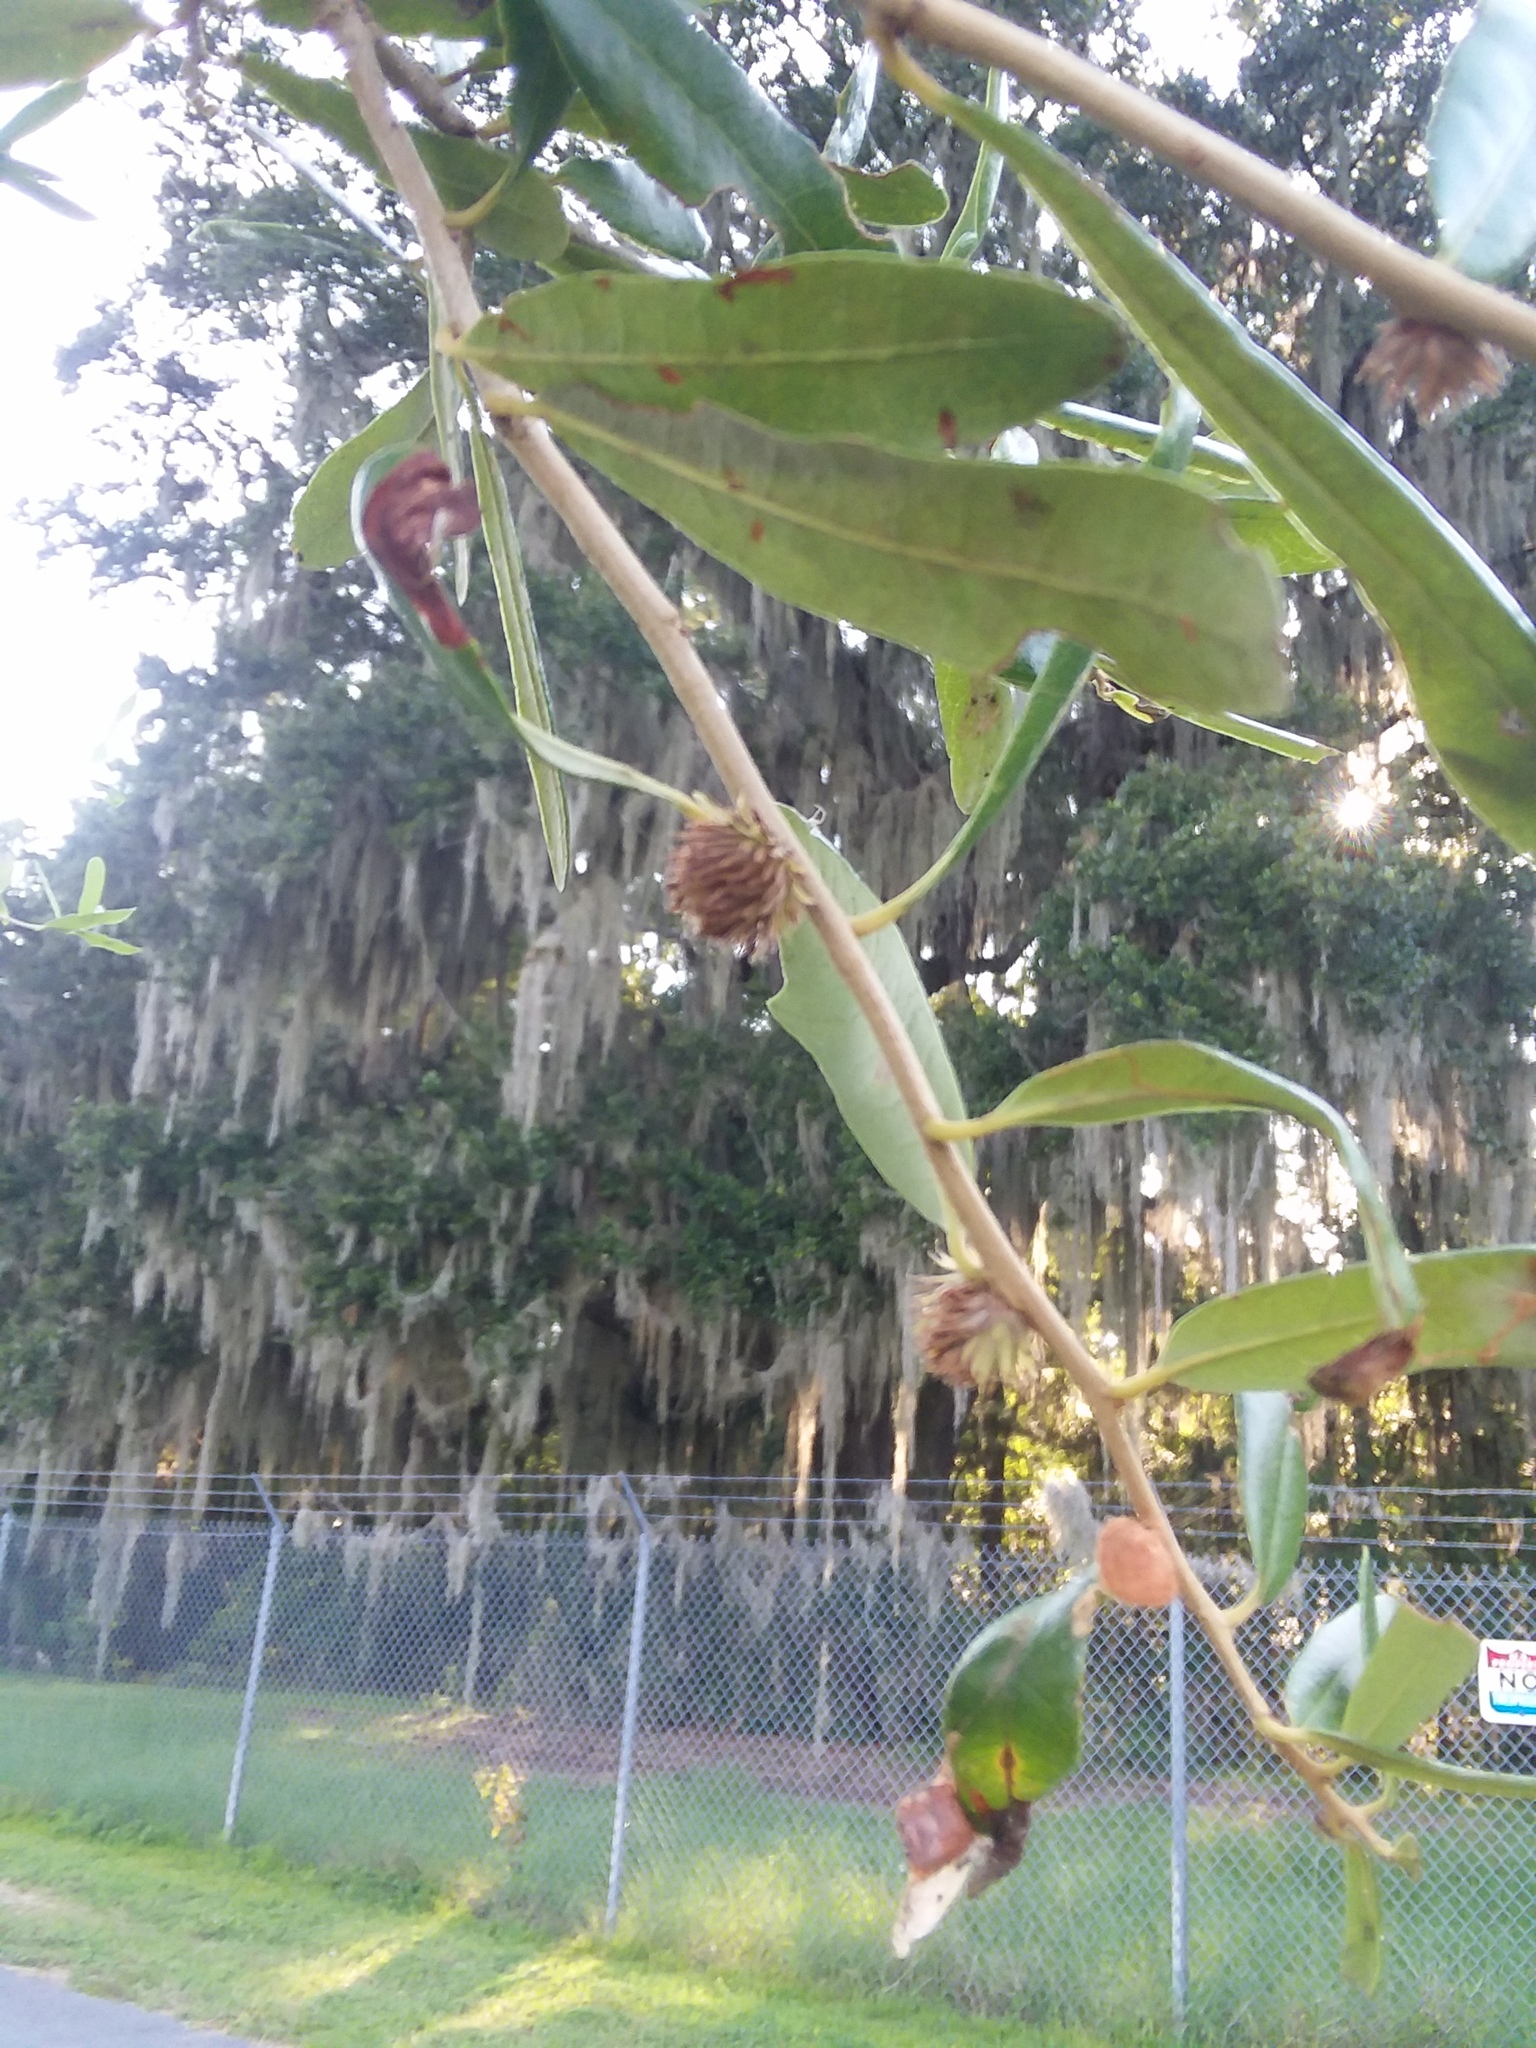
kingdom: Animalia
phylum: Arthropoda
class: Insecta
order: Hymenoptera
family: Cynipidae
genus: Andricus
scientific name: Andricus quercusfoliatus
